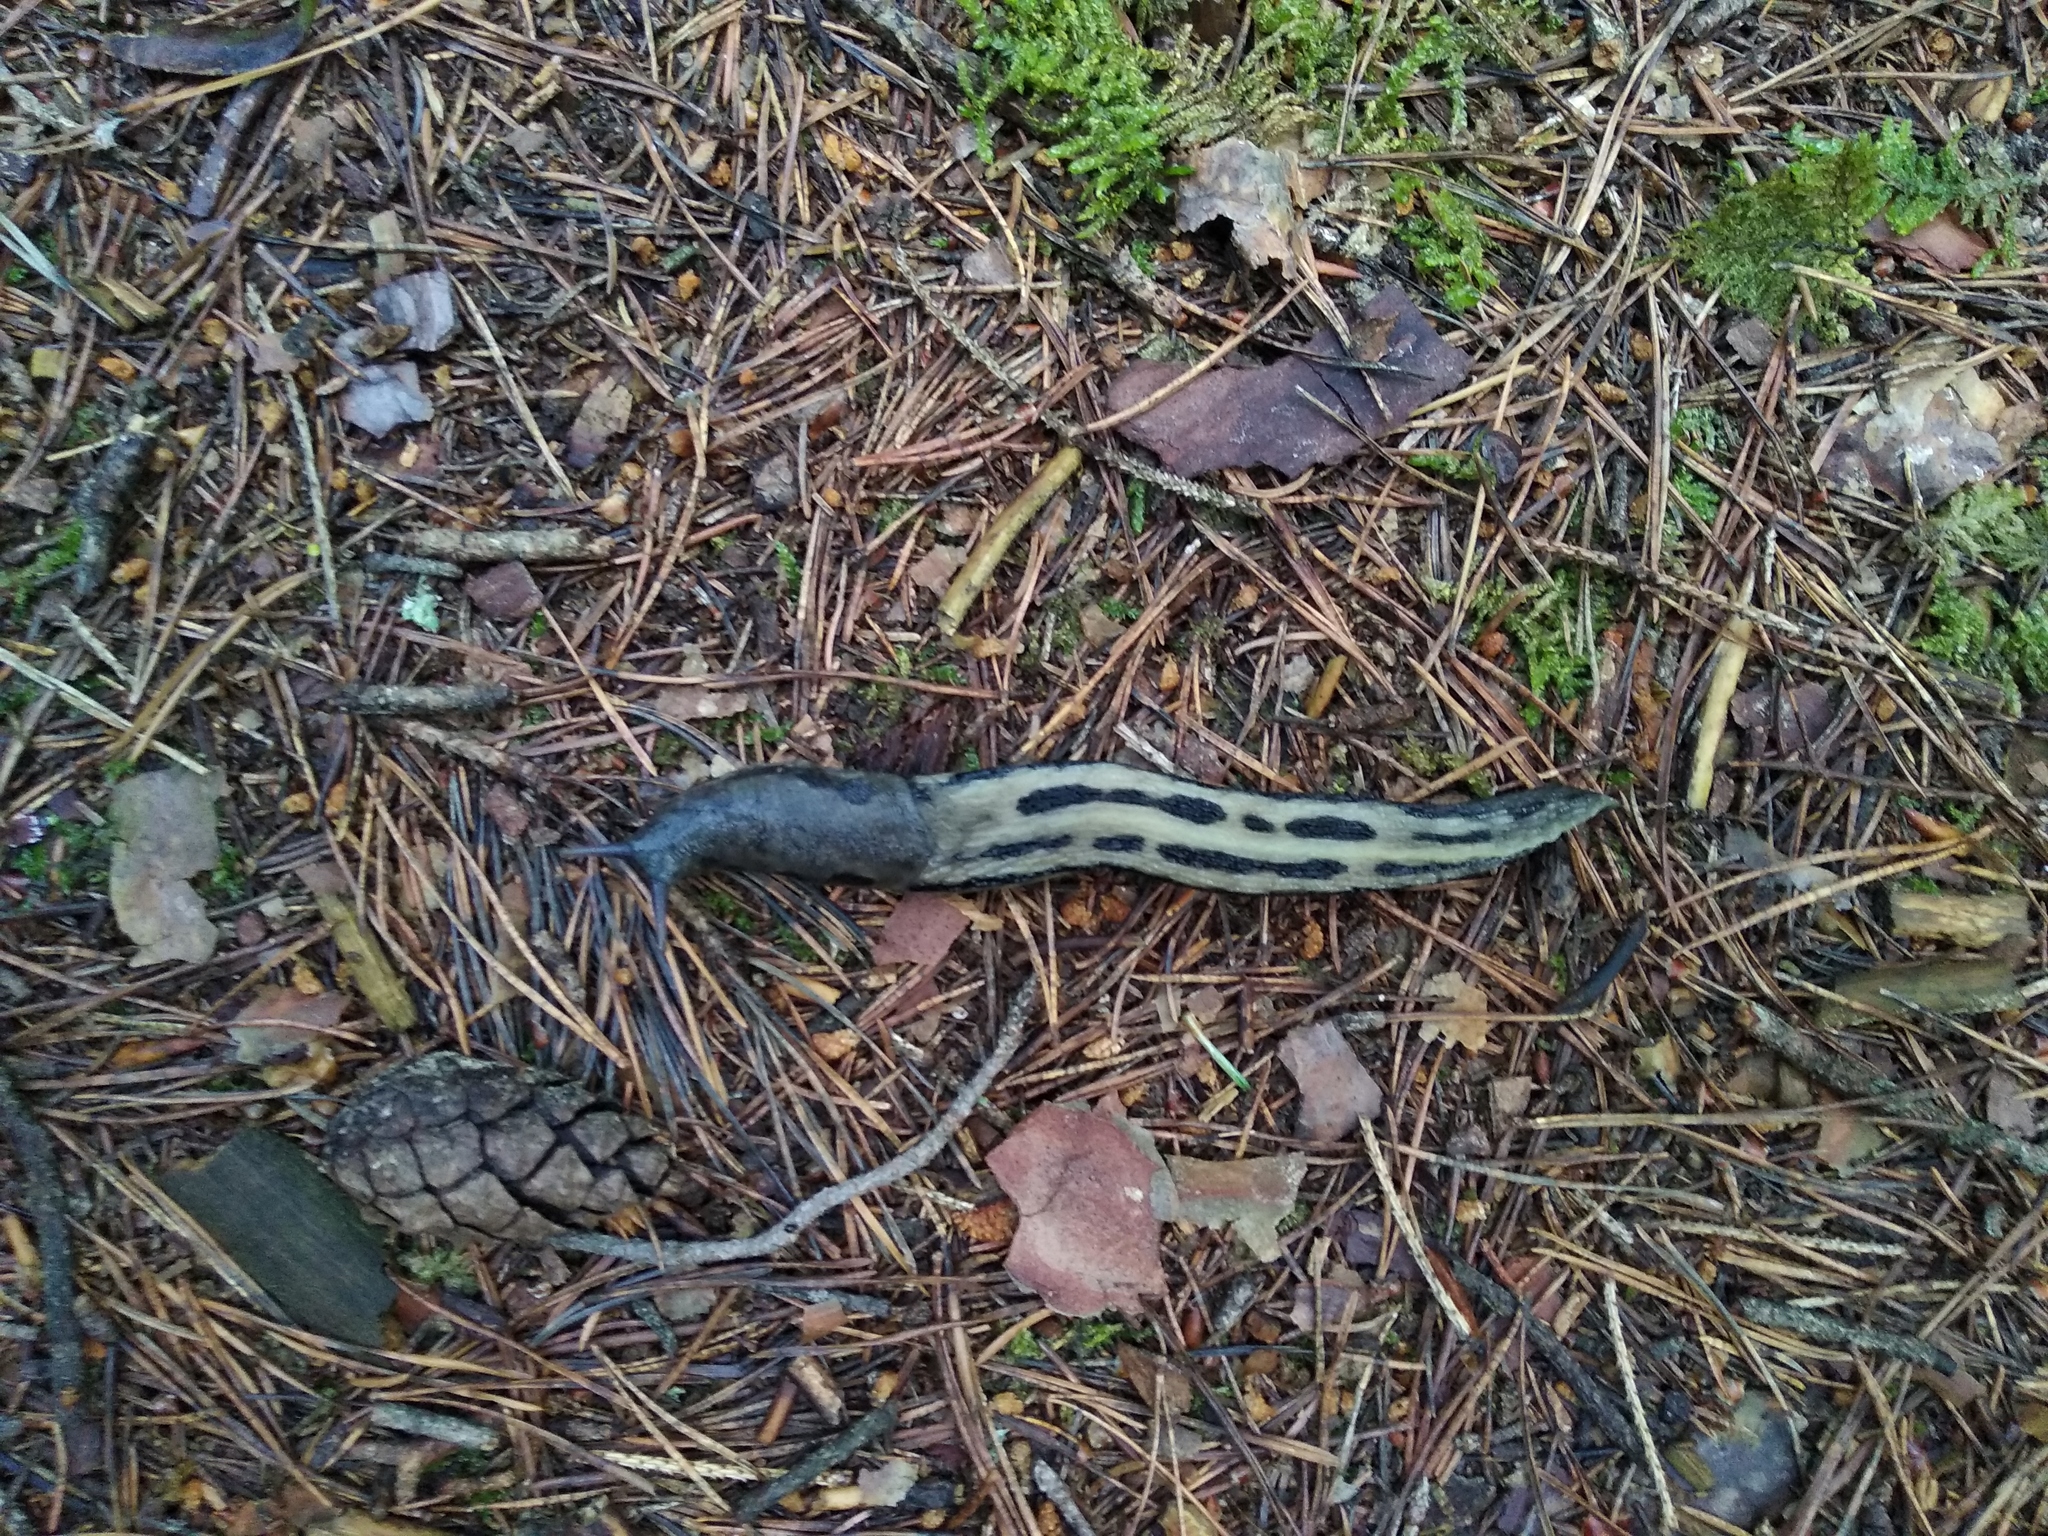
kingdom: Animalia
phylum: Mollusca
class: Gastropoda
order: Stylommatophora
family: Limacidae
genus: Limax
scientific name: Limax cinereoniger
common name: Ash-black slug
